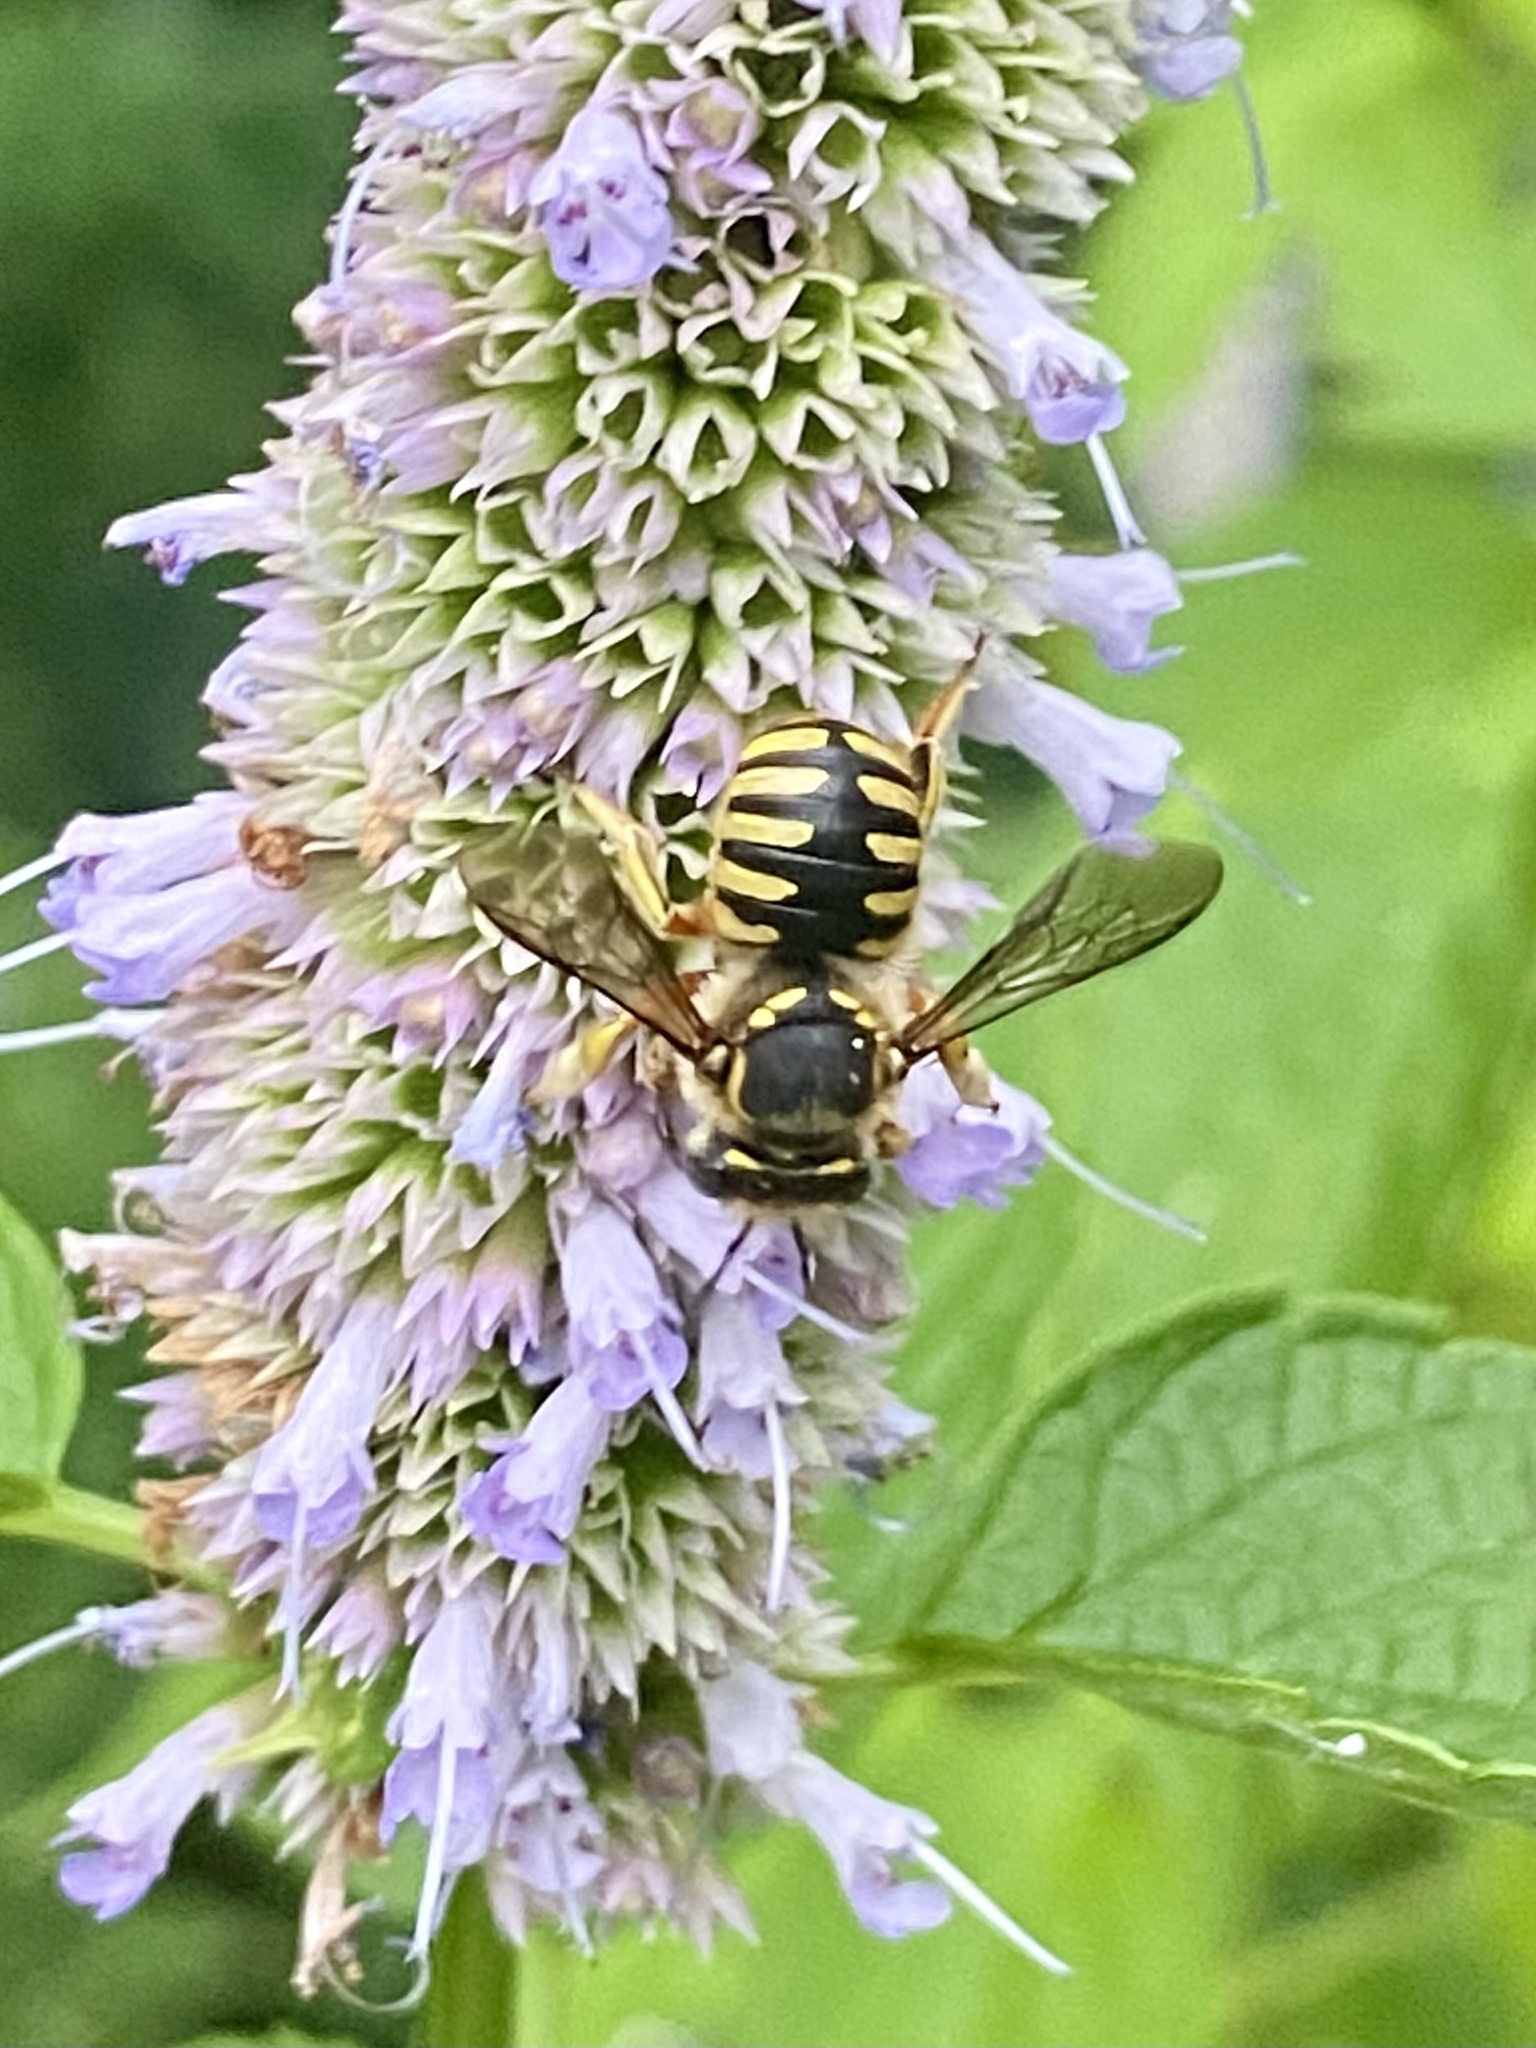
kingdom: Animalia
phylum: Arthropoda
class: Insecta
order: Hymenoptera
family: Megachilidae
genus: Anthidium
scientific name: Anthidium manicatum
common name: Wool carder bee
